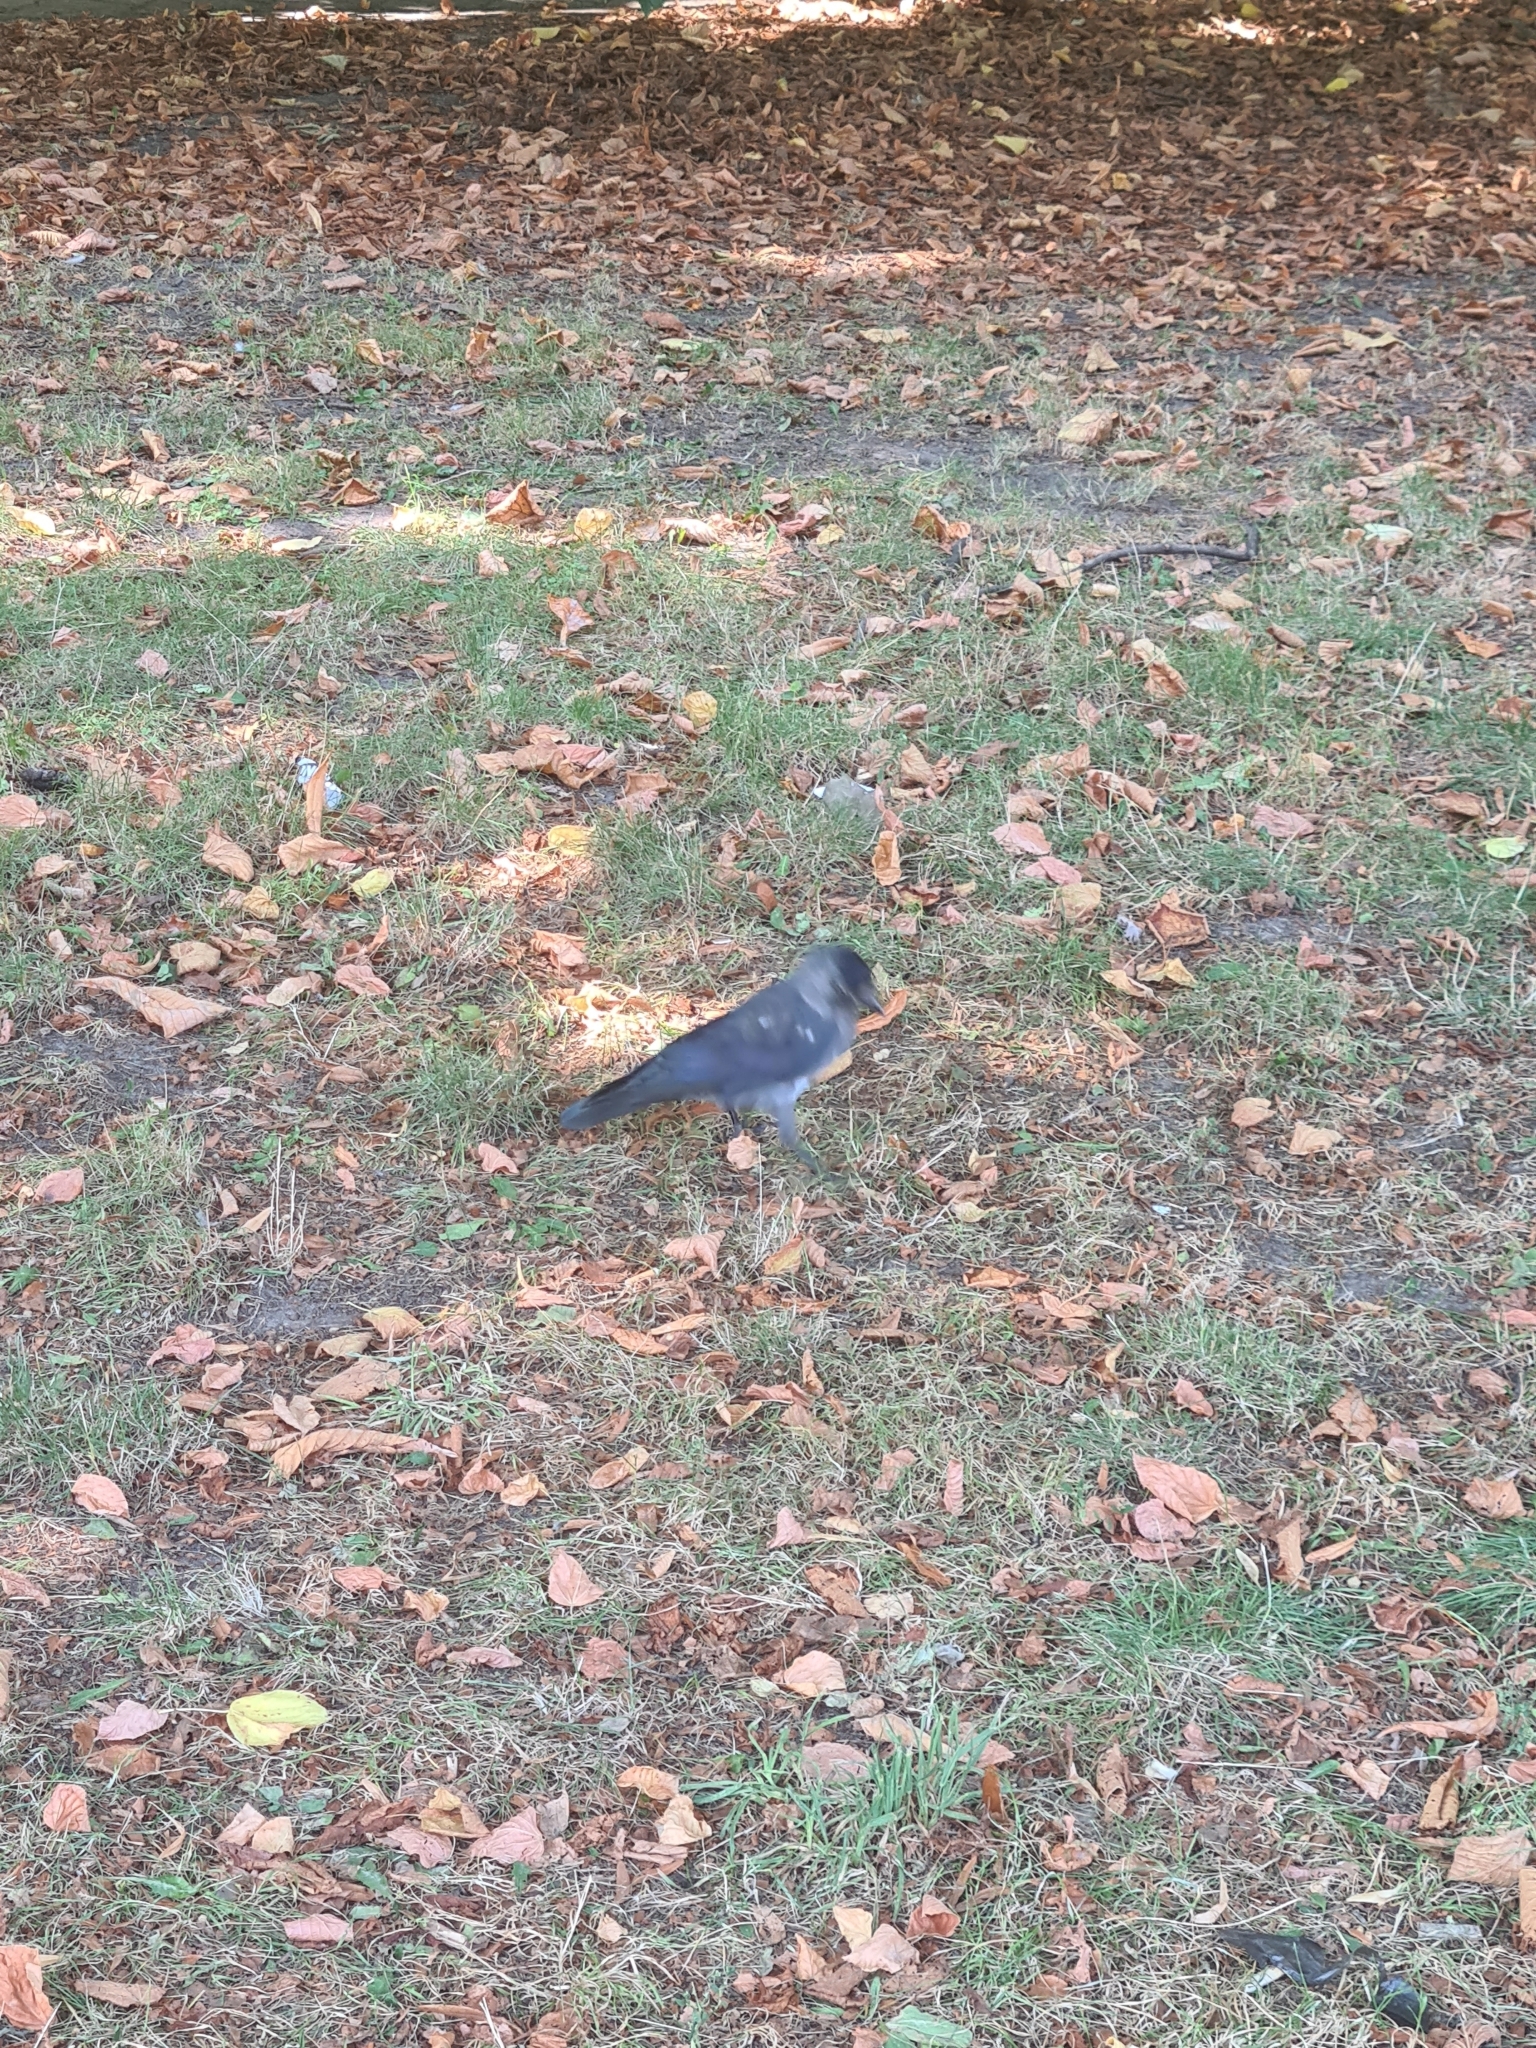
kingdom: Animalia
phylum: Chordata
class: Aves
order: Passeriformes
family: Corvidae
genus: Coloeus
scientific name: Coloeus monedula
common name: Western jackdaw
